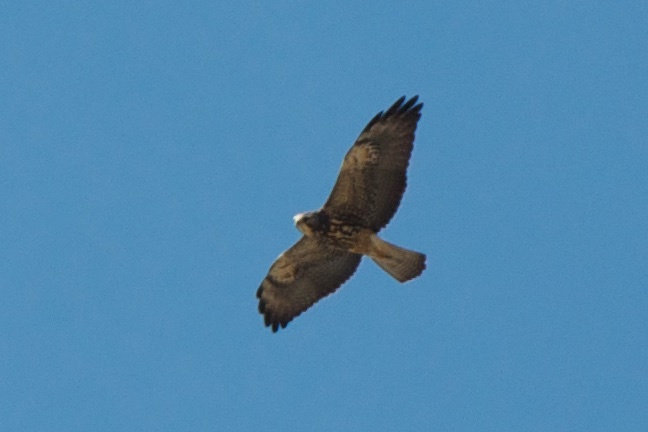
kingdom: Animalia
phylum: Chordata
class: Aves
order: Accipitriformes
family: Accipitridae
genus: Buteo
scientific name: Buteo swainsoni
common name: Swainson's hawk
